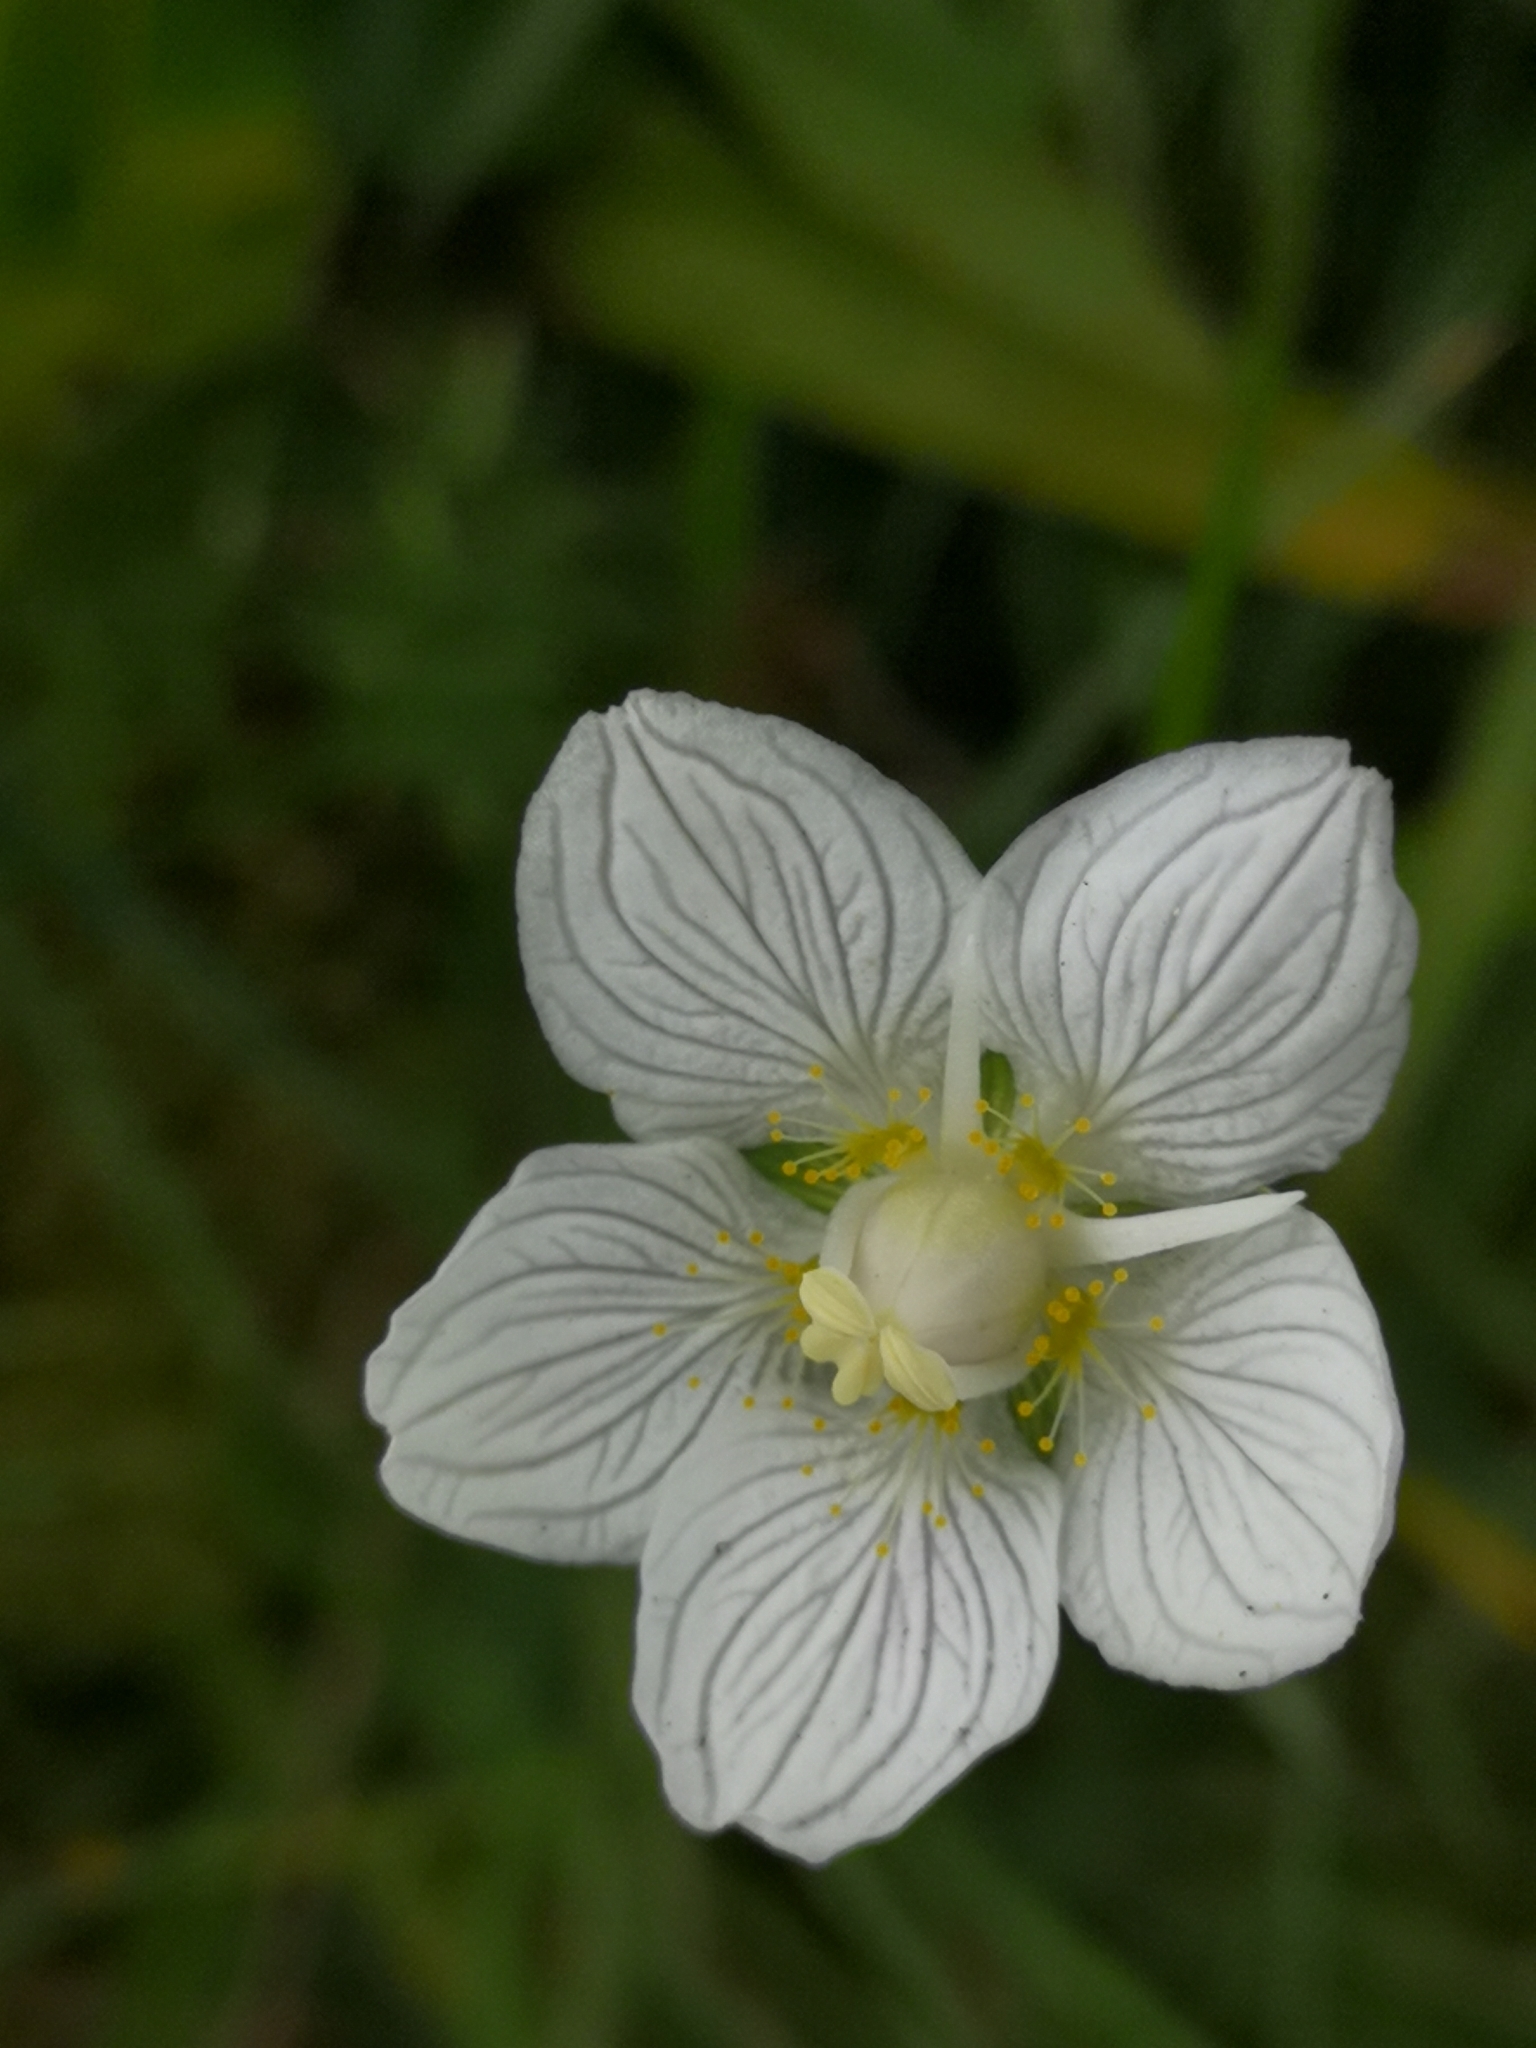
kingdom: Plantae
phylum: Tracheophyta
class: Magnoliopsida
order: Celastrales
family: Parnassiaceae
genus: Parnassia
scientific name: Parnassia palustris
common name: Grass-of-parnassus
